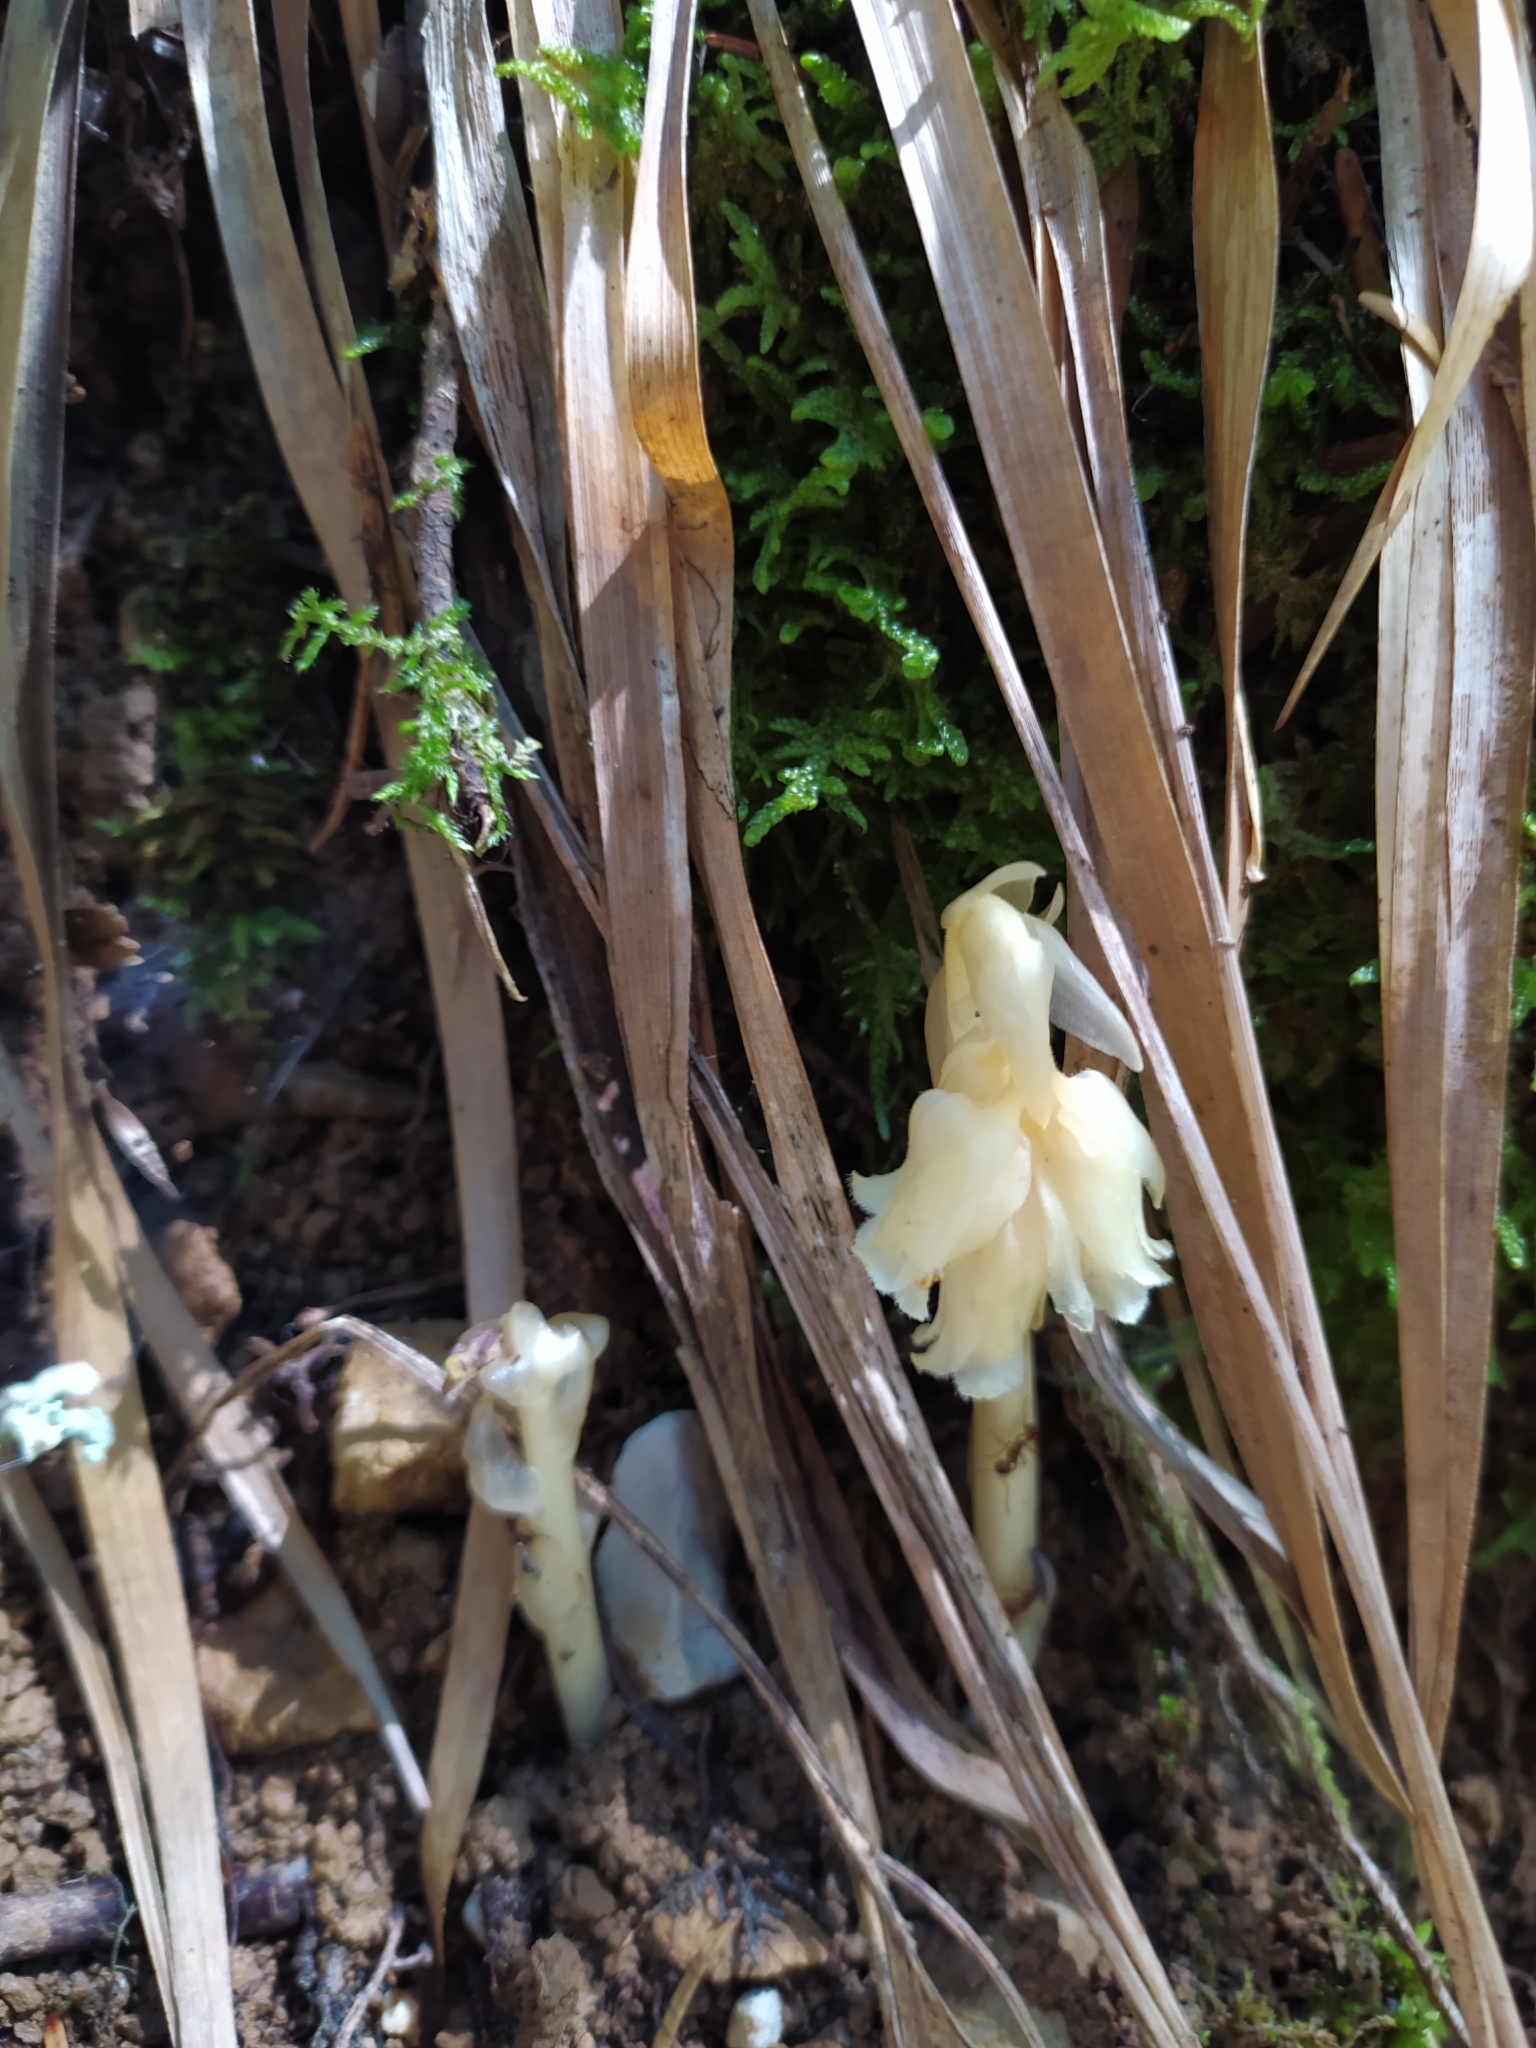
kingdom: Plantae
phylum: Tracheophyta
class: Magnoliopsida
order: Ericales
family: Ericaceae
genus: Hypopitys
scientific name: Hypopitys monotropa
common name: Yellow bird's-nest
